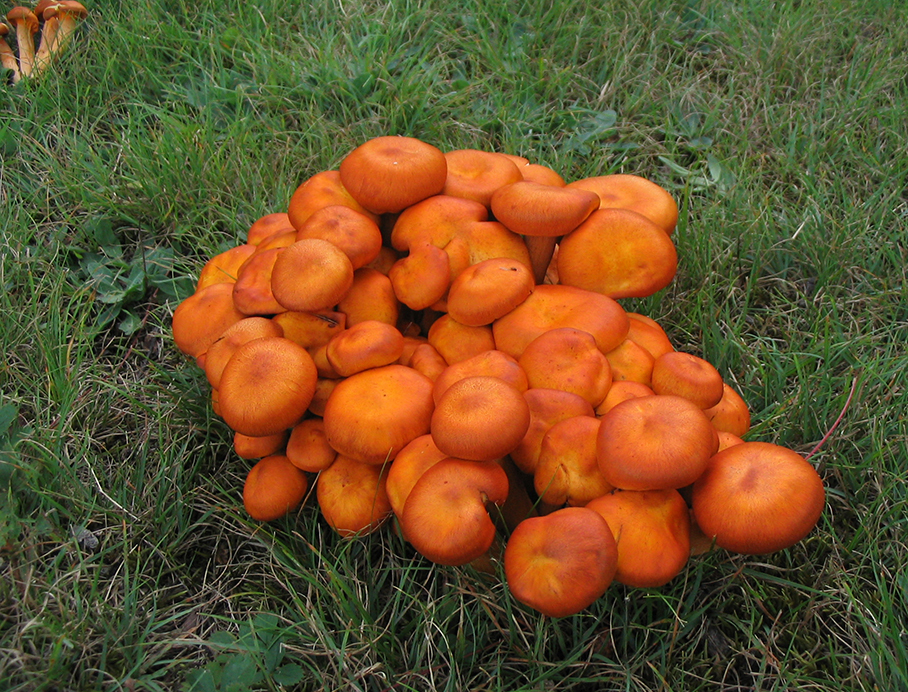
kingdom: Fungi
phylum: Basidiomycota
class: Agaricomycetes
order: Agaricales
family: Omphalotaceae
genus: Omphalotus
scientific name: Omphalotus illudens
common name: Jack o lantern
